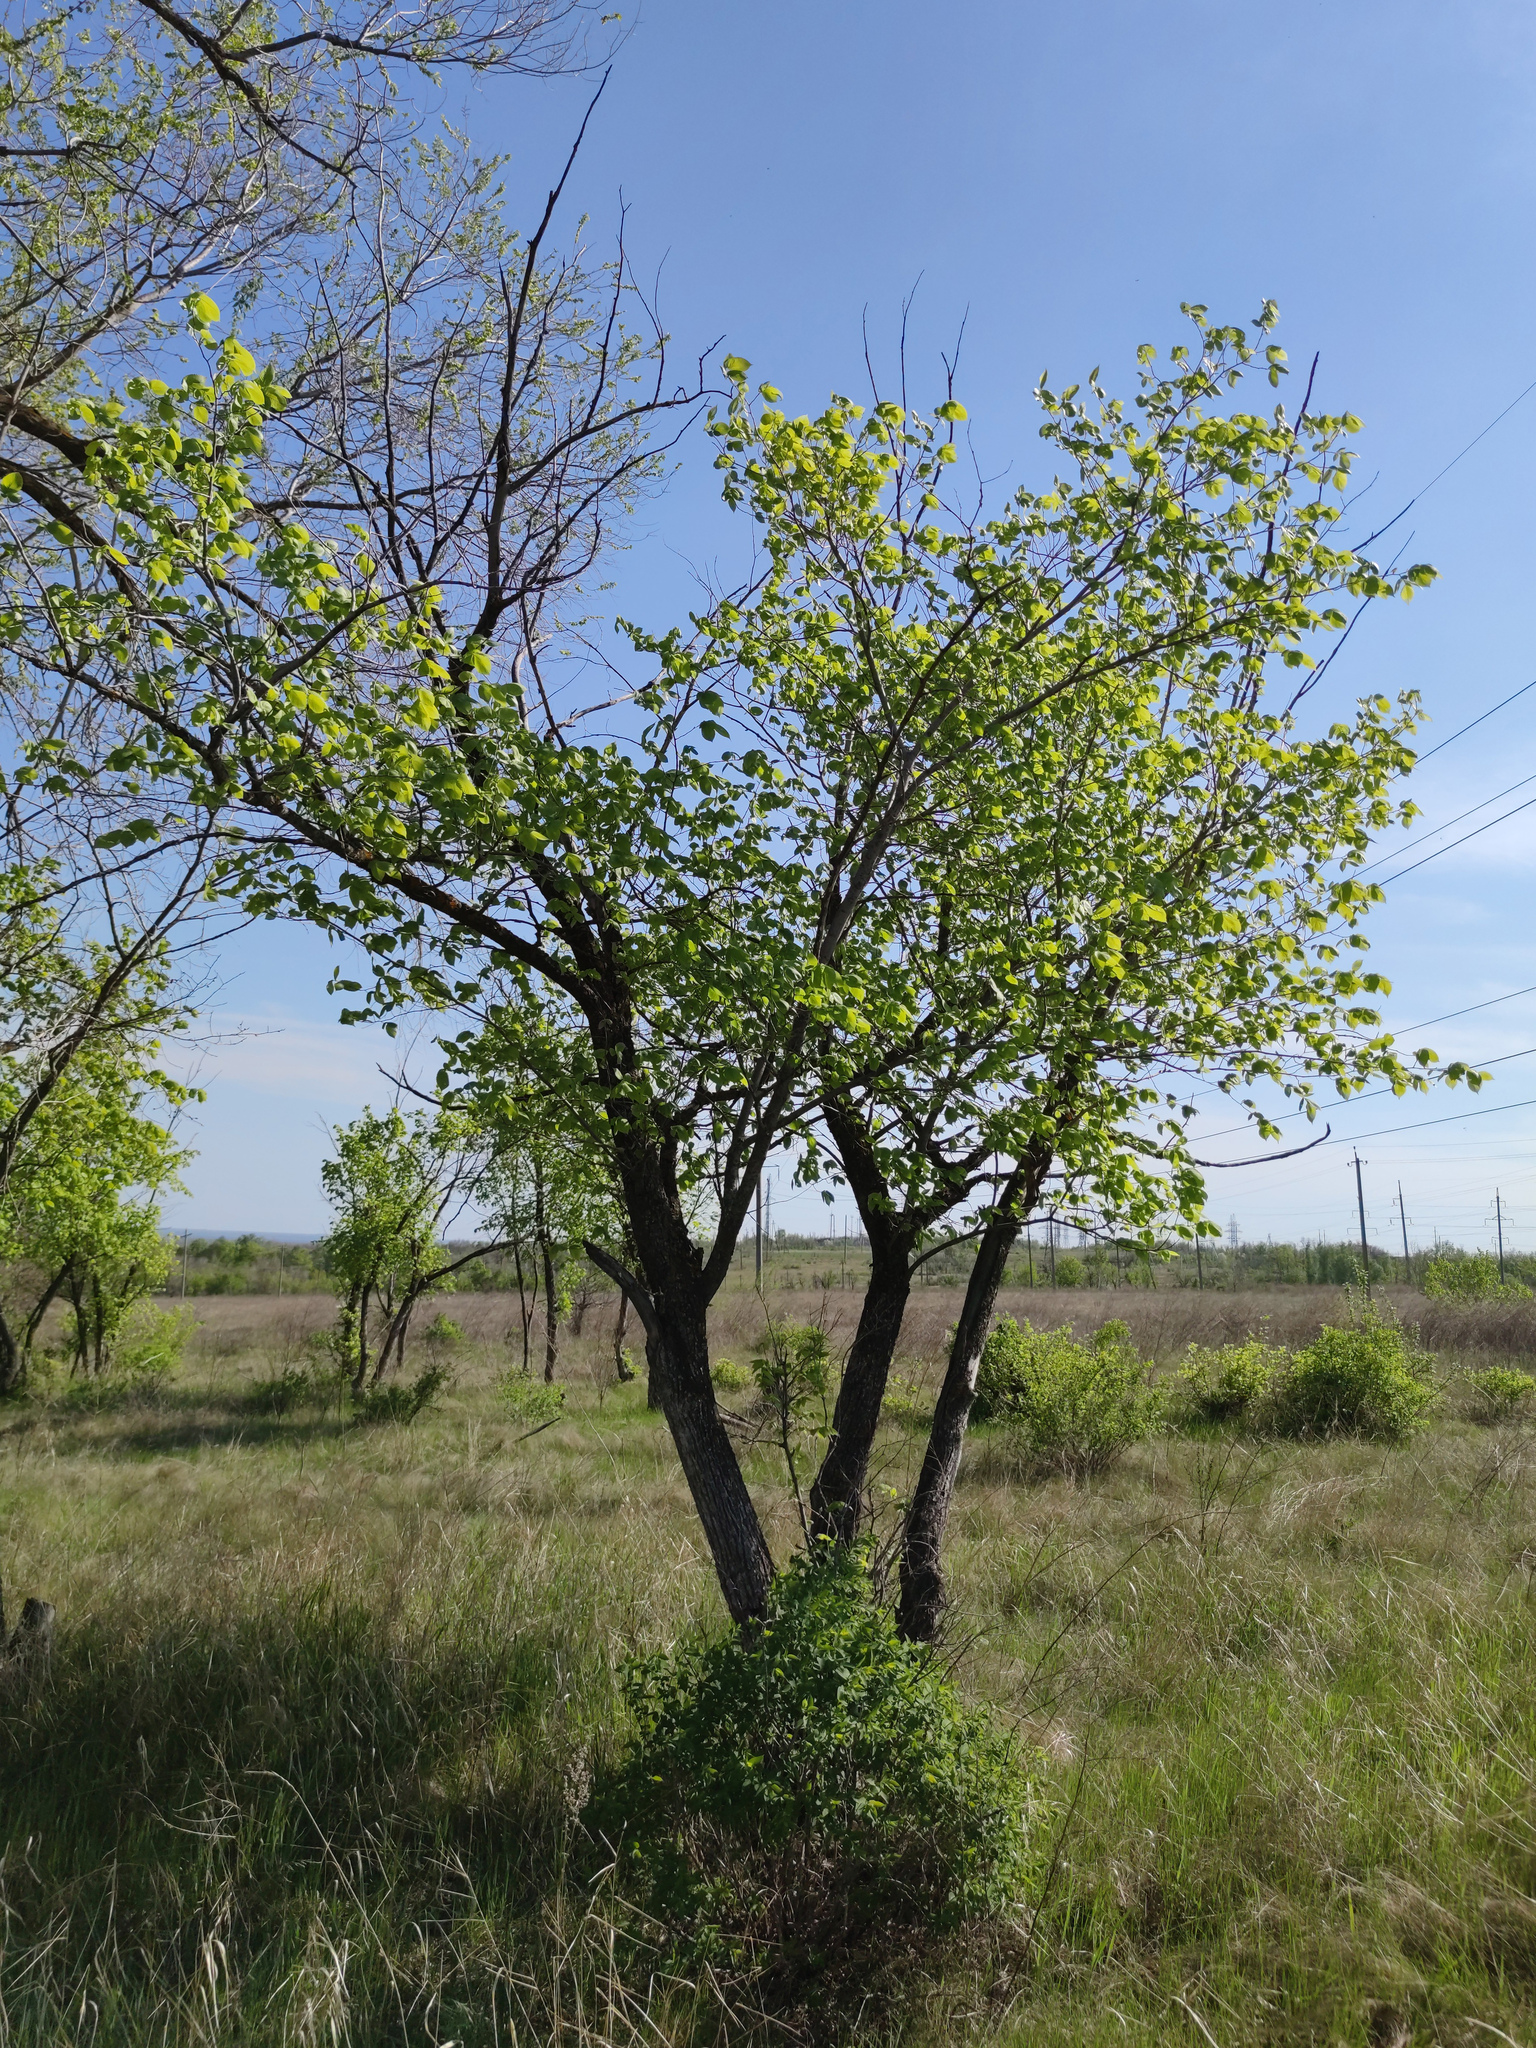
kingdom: Plantae
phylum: Tracheophyta
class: Magnoliopsida
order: Rosales
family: Ulmaceae
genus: Ulmus
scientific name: Ulmus laevis
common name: European white-elm
